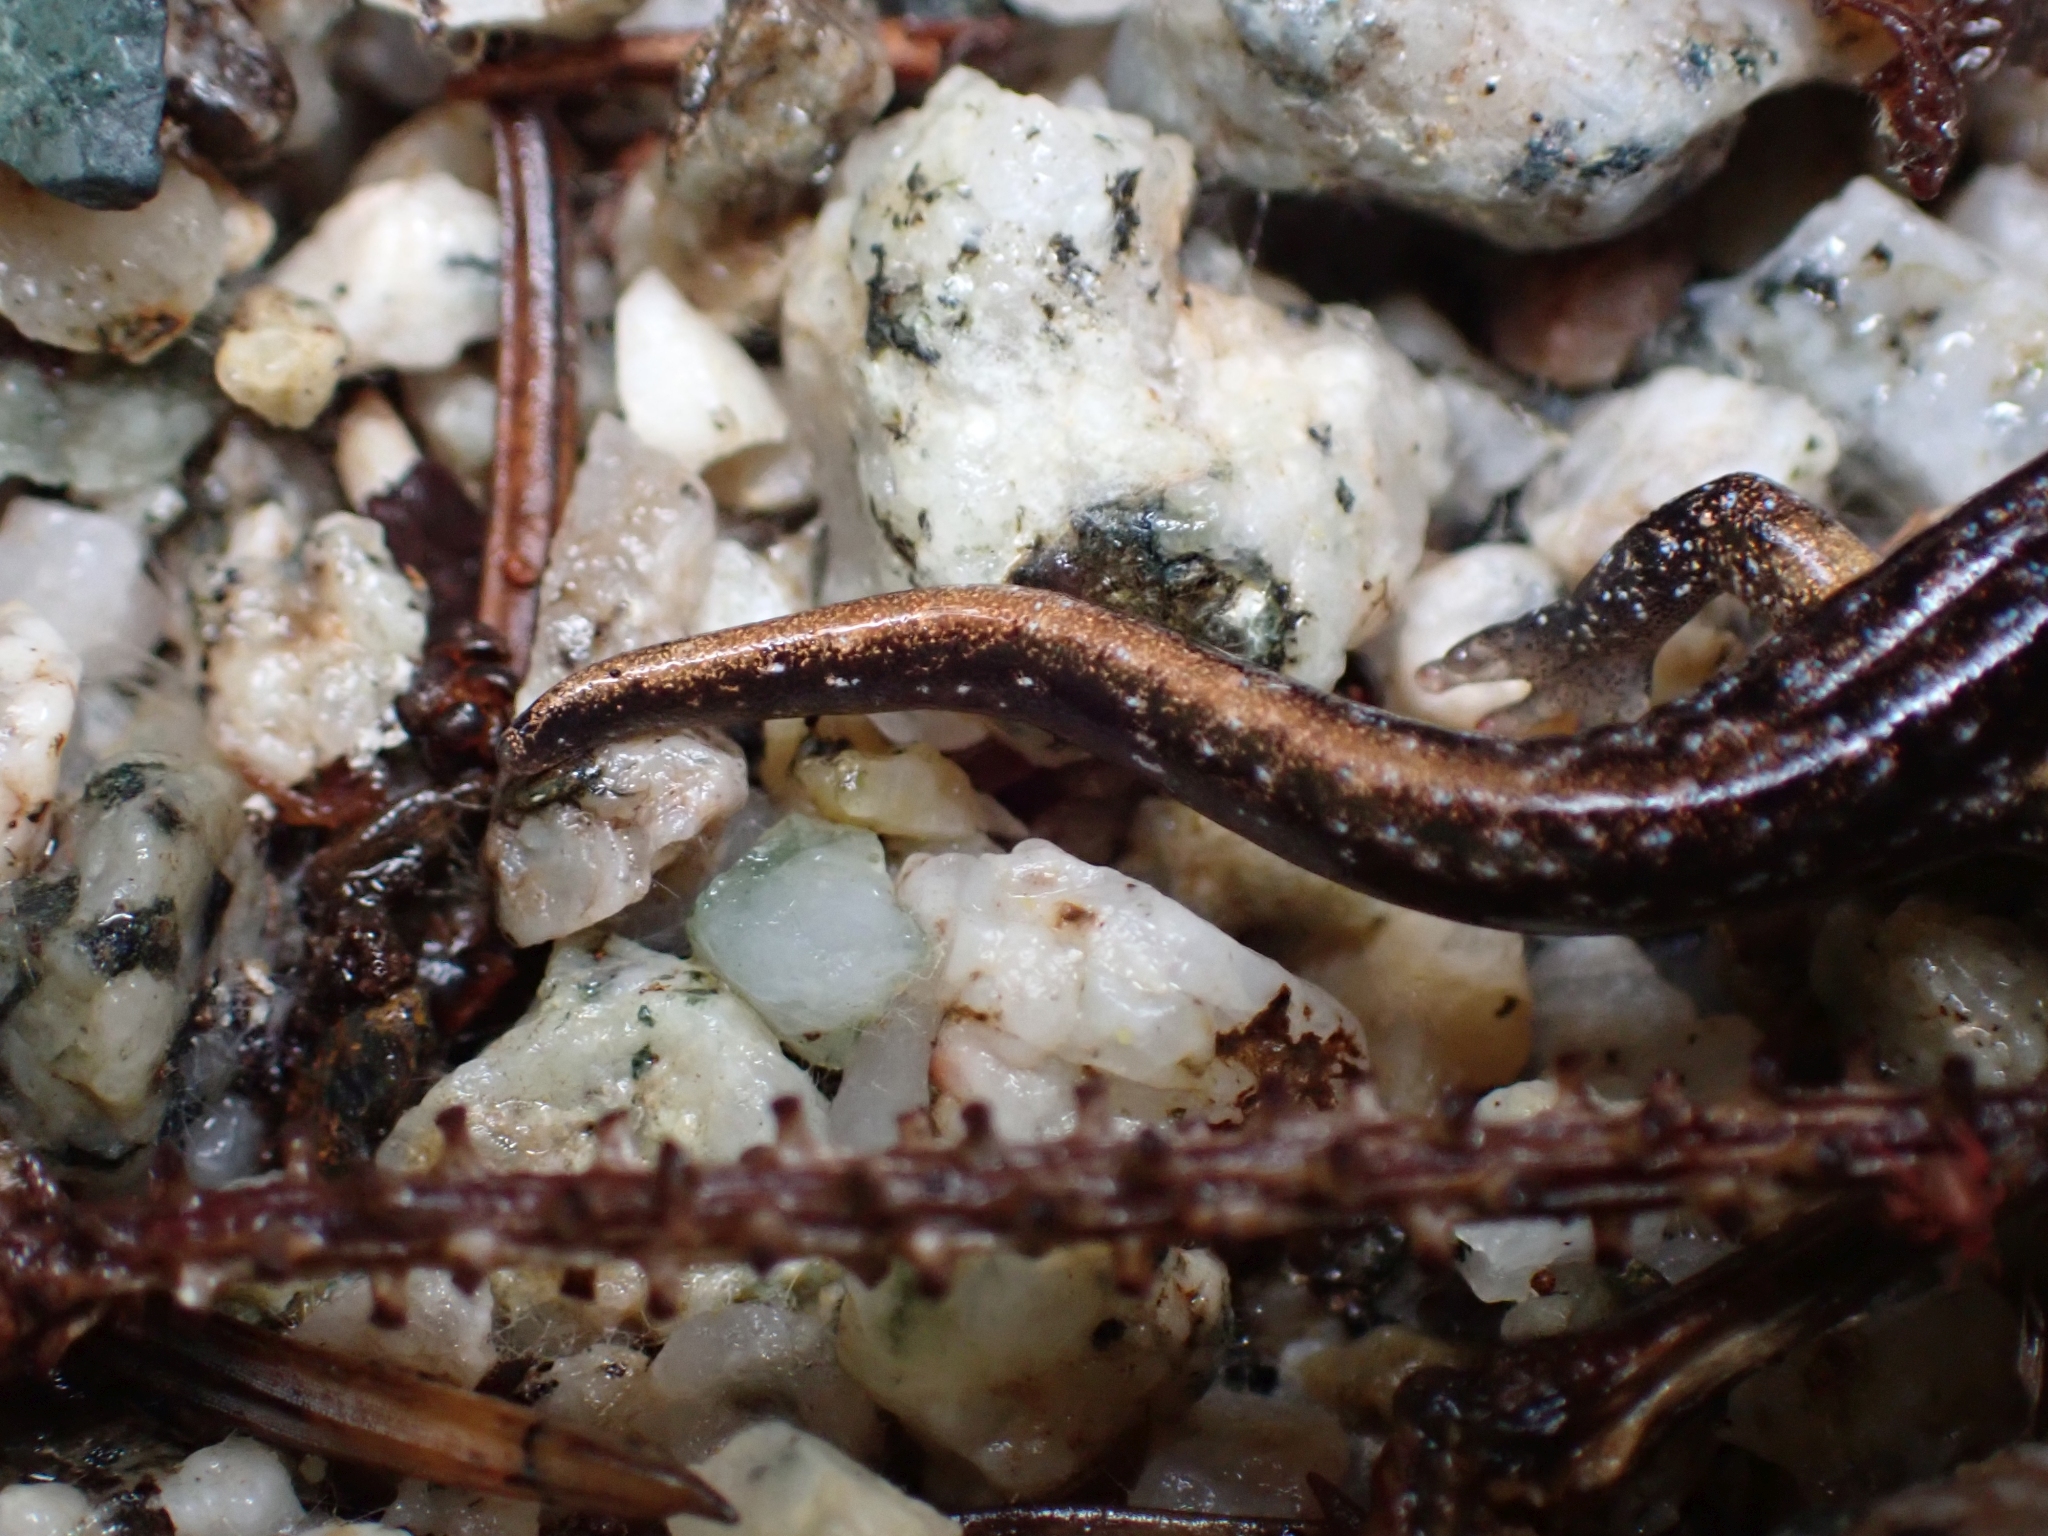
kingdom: Animalia
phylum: Chordata
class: Amphibia
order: Caudata
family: Plethodontidae
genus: Aneides
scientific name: Aneides vagrans
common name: Wandering salamander
